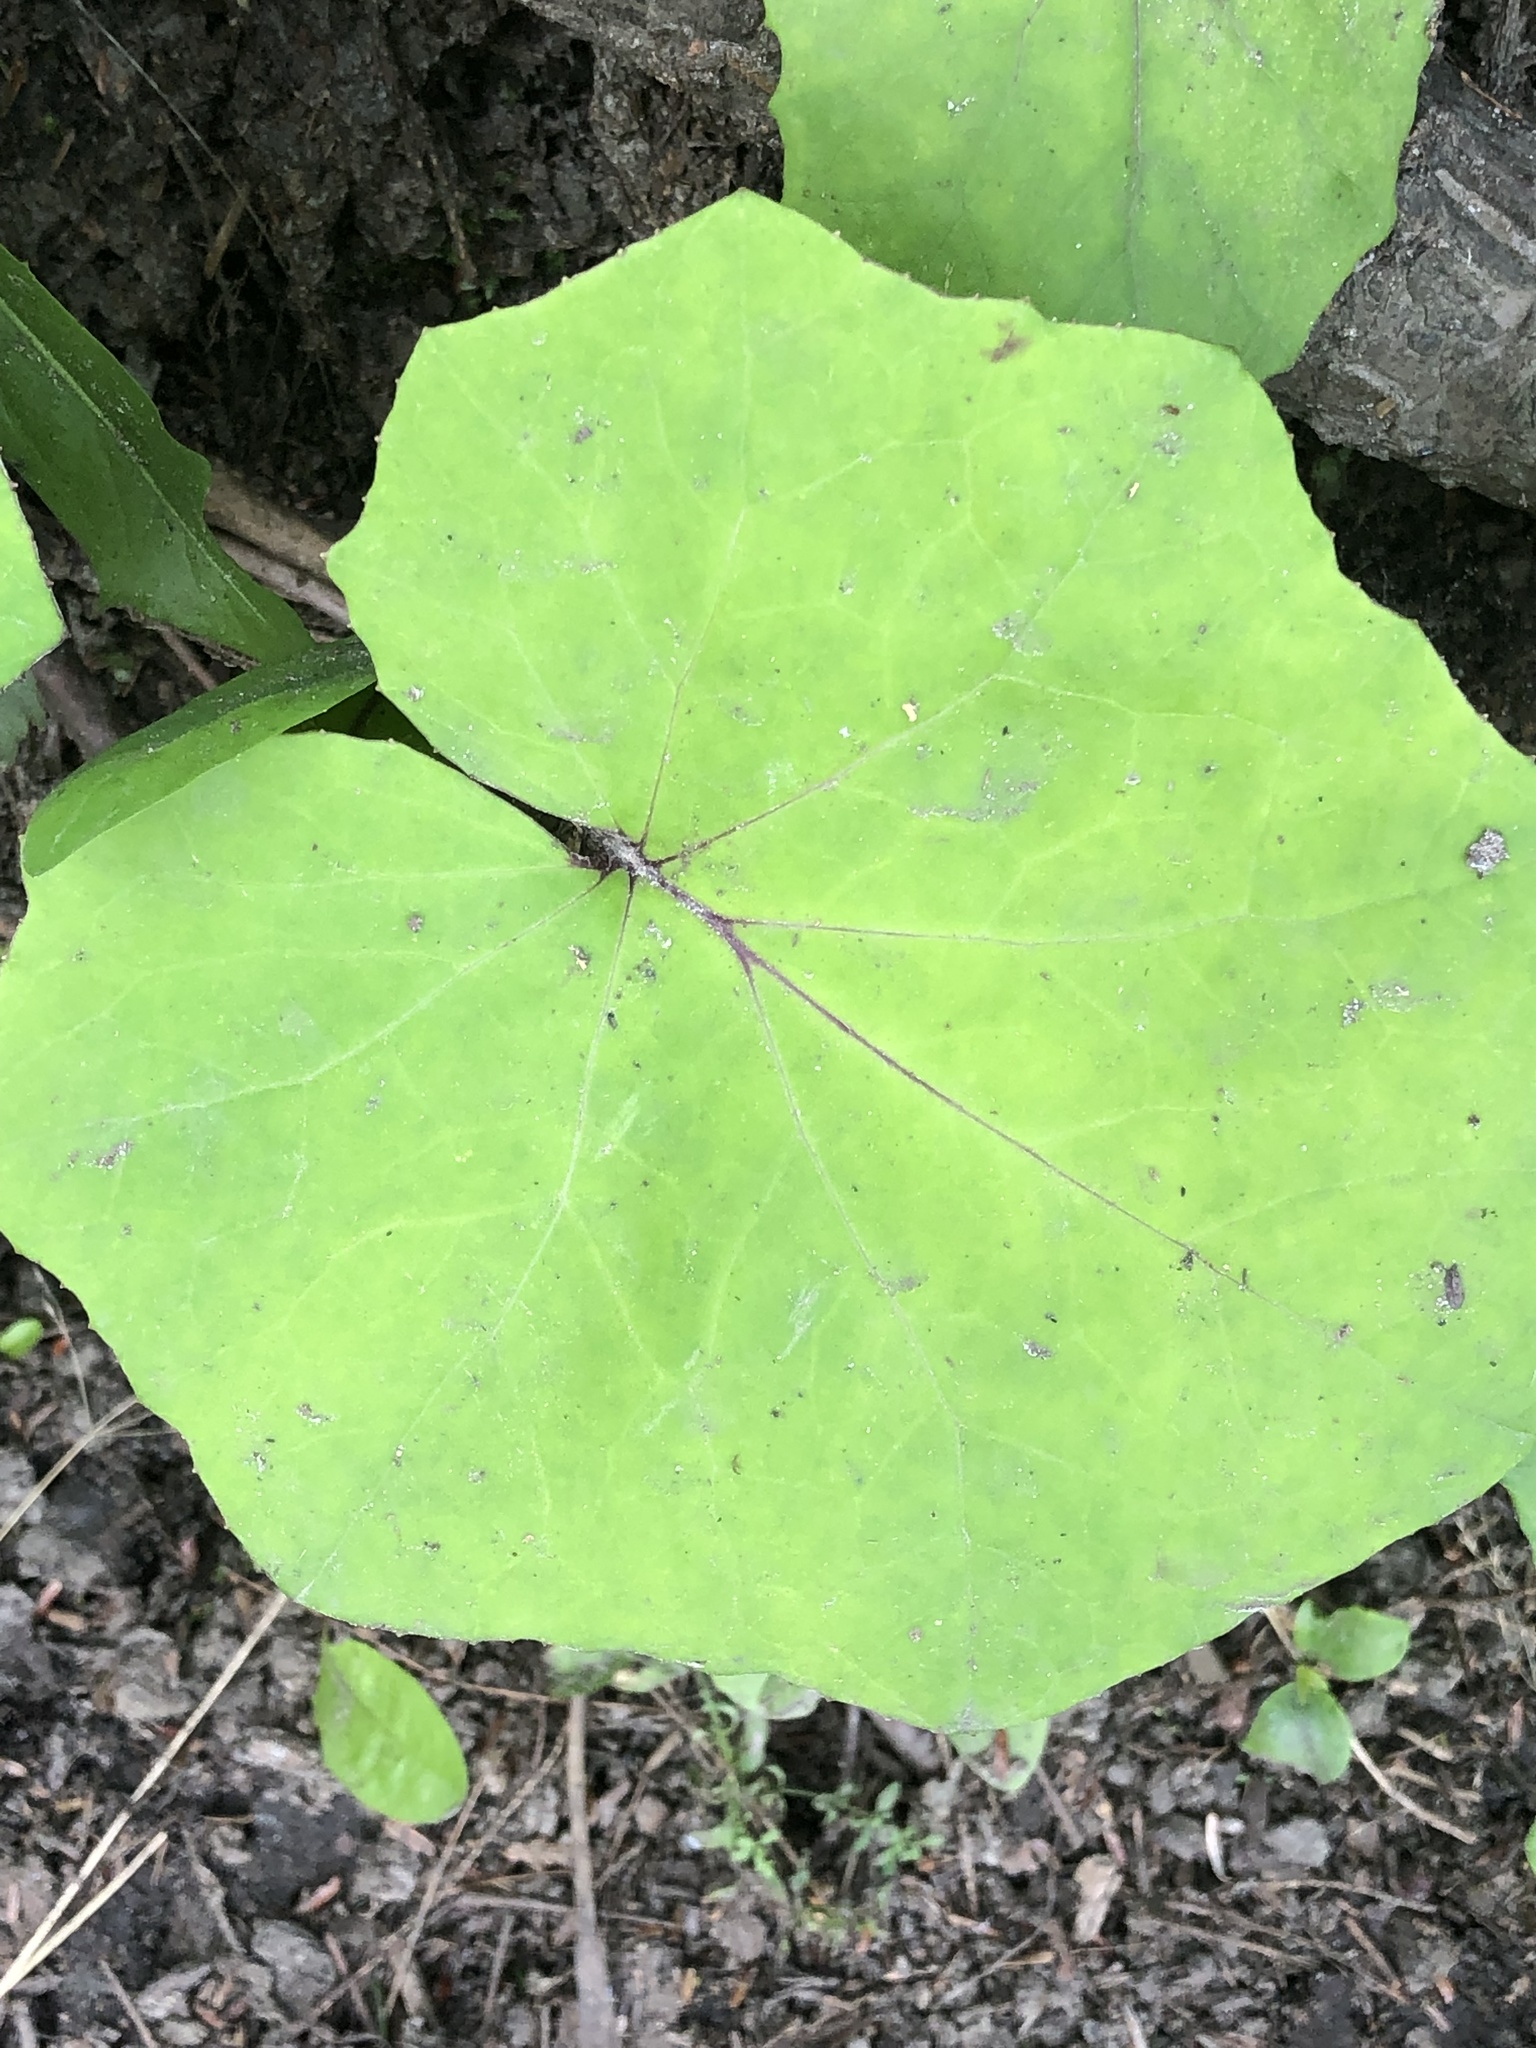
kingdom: Plantae
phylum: Tracheophyta
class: Magnoliopsida
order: Asterales
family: Asteraceae
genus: Tussilago
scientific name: Tussilago farfara
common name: Coltsfoot
